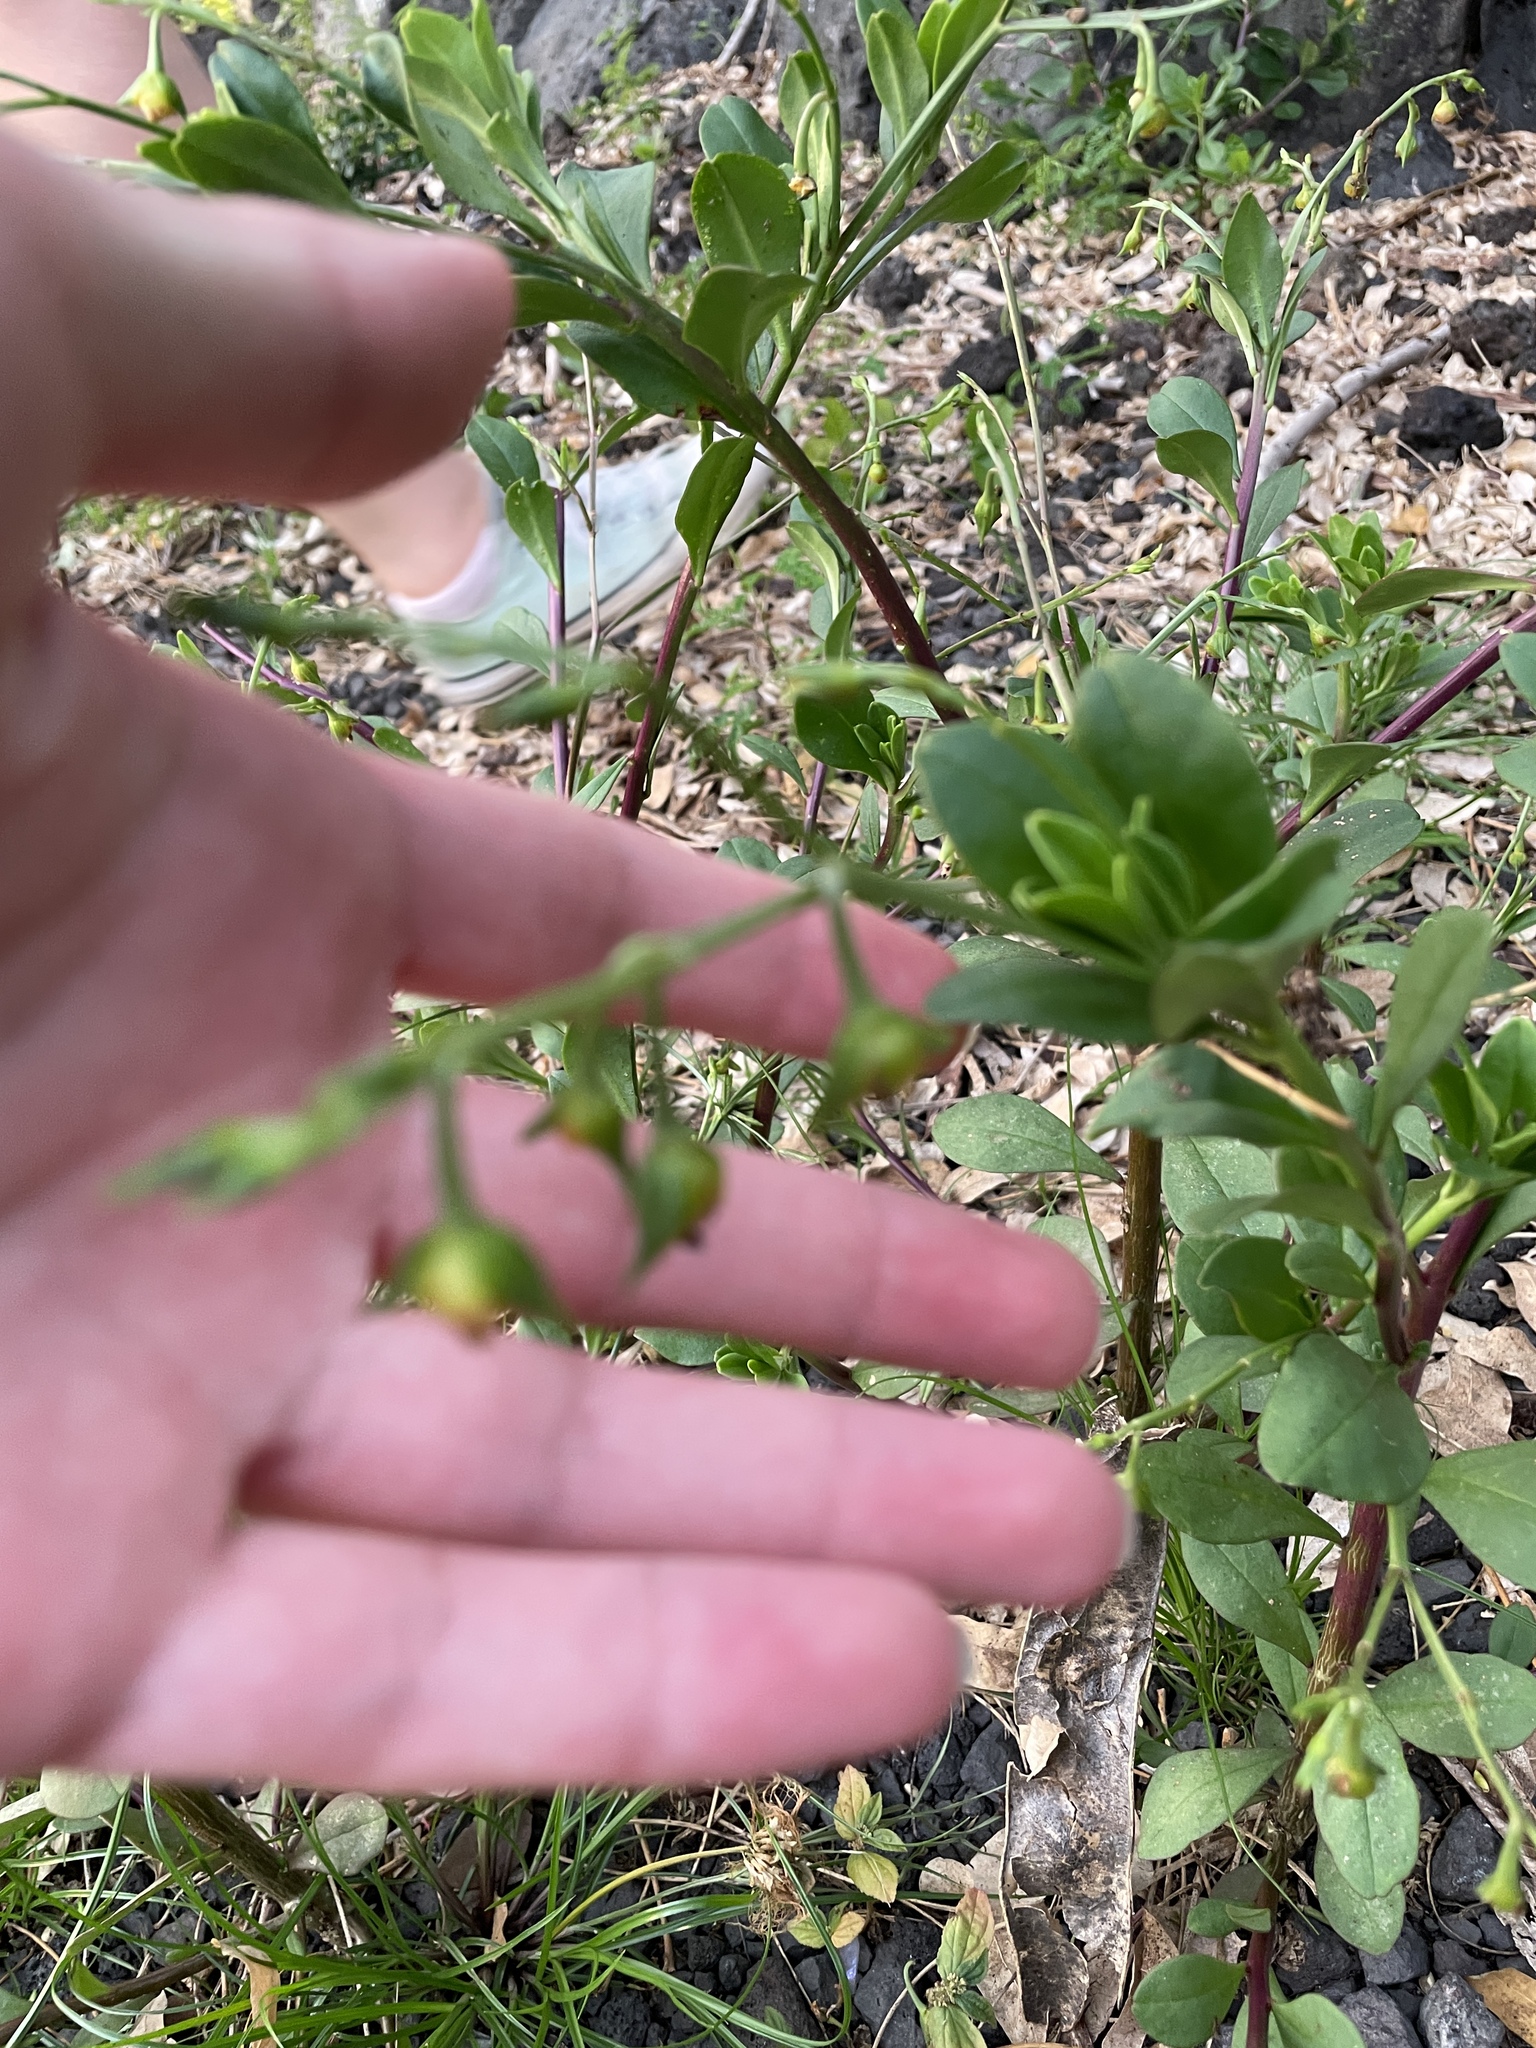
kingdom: Plantae
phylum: Tracheophyta
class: Magnoliopsida
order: Caryophyllales
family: Talinaceae
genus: Talinum
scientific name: Talinum fruticosum
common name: Verdolaga-francesa
